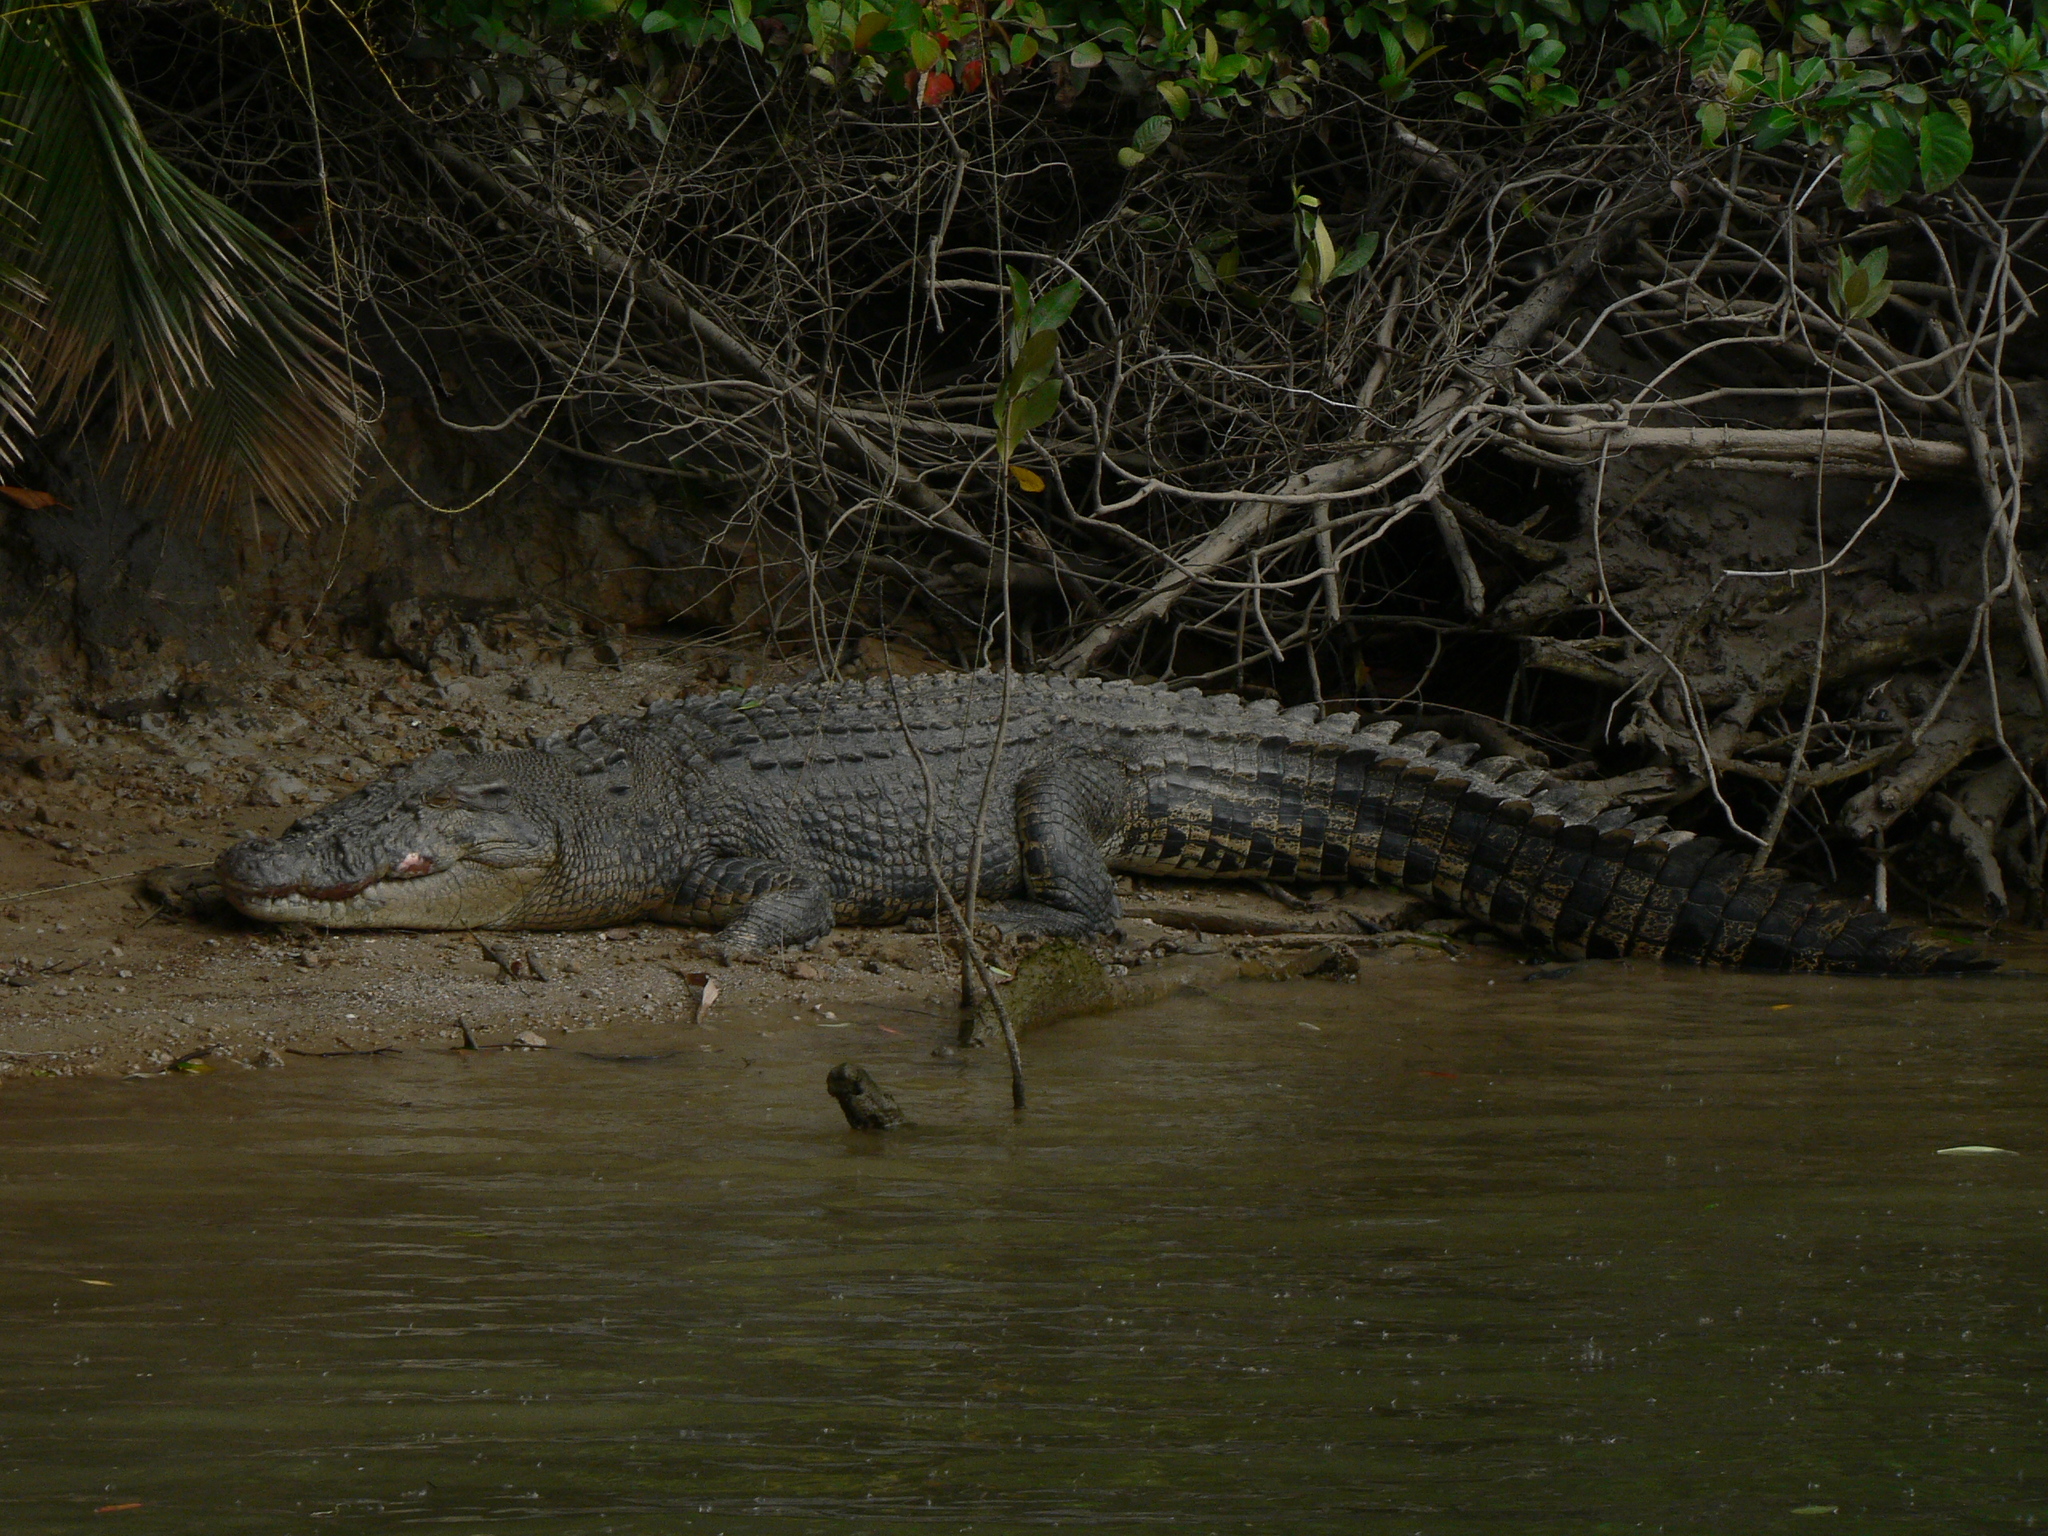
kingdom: Animalia
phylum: Chordata
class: Crocodylia
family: Crocodylidae
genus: Crocodylus
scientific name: Crocodylus porosus
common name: Saltwater crocodile
